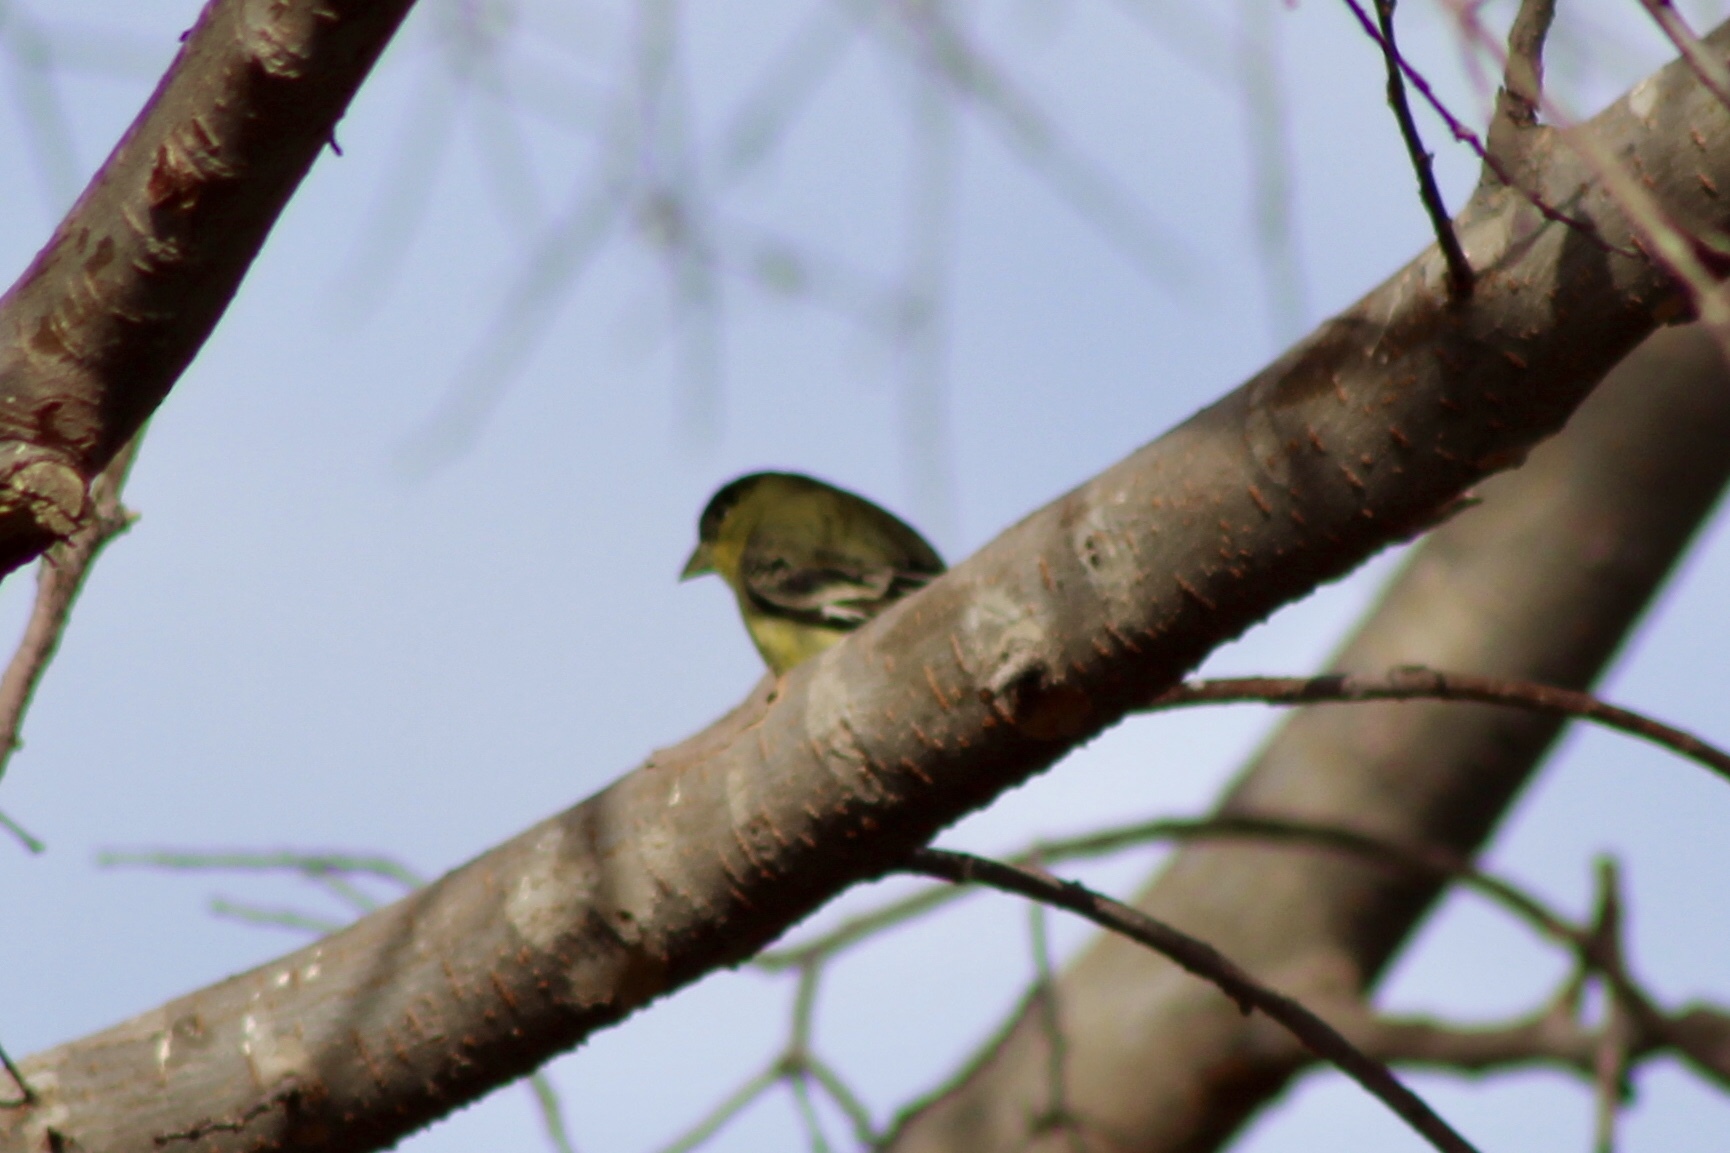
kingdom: Animalia
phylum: Chordata
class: Aves
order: Passeriformes
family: Fringillidae
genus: Spinus
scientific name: Spinus psaltria
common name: Lesser goldfinch
